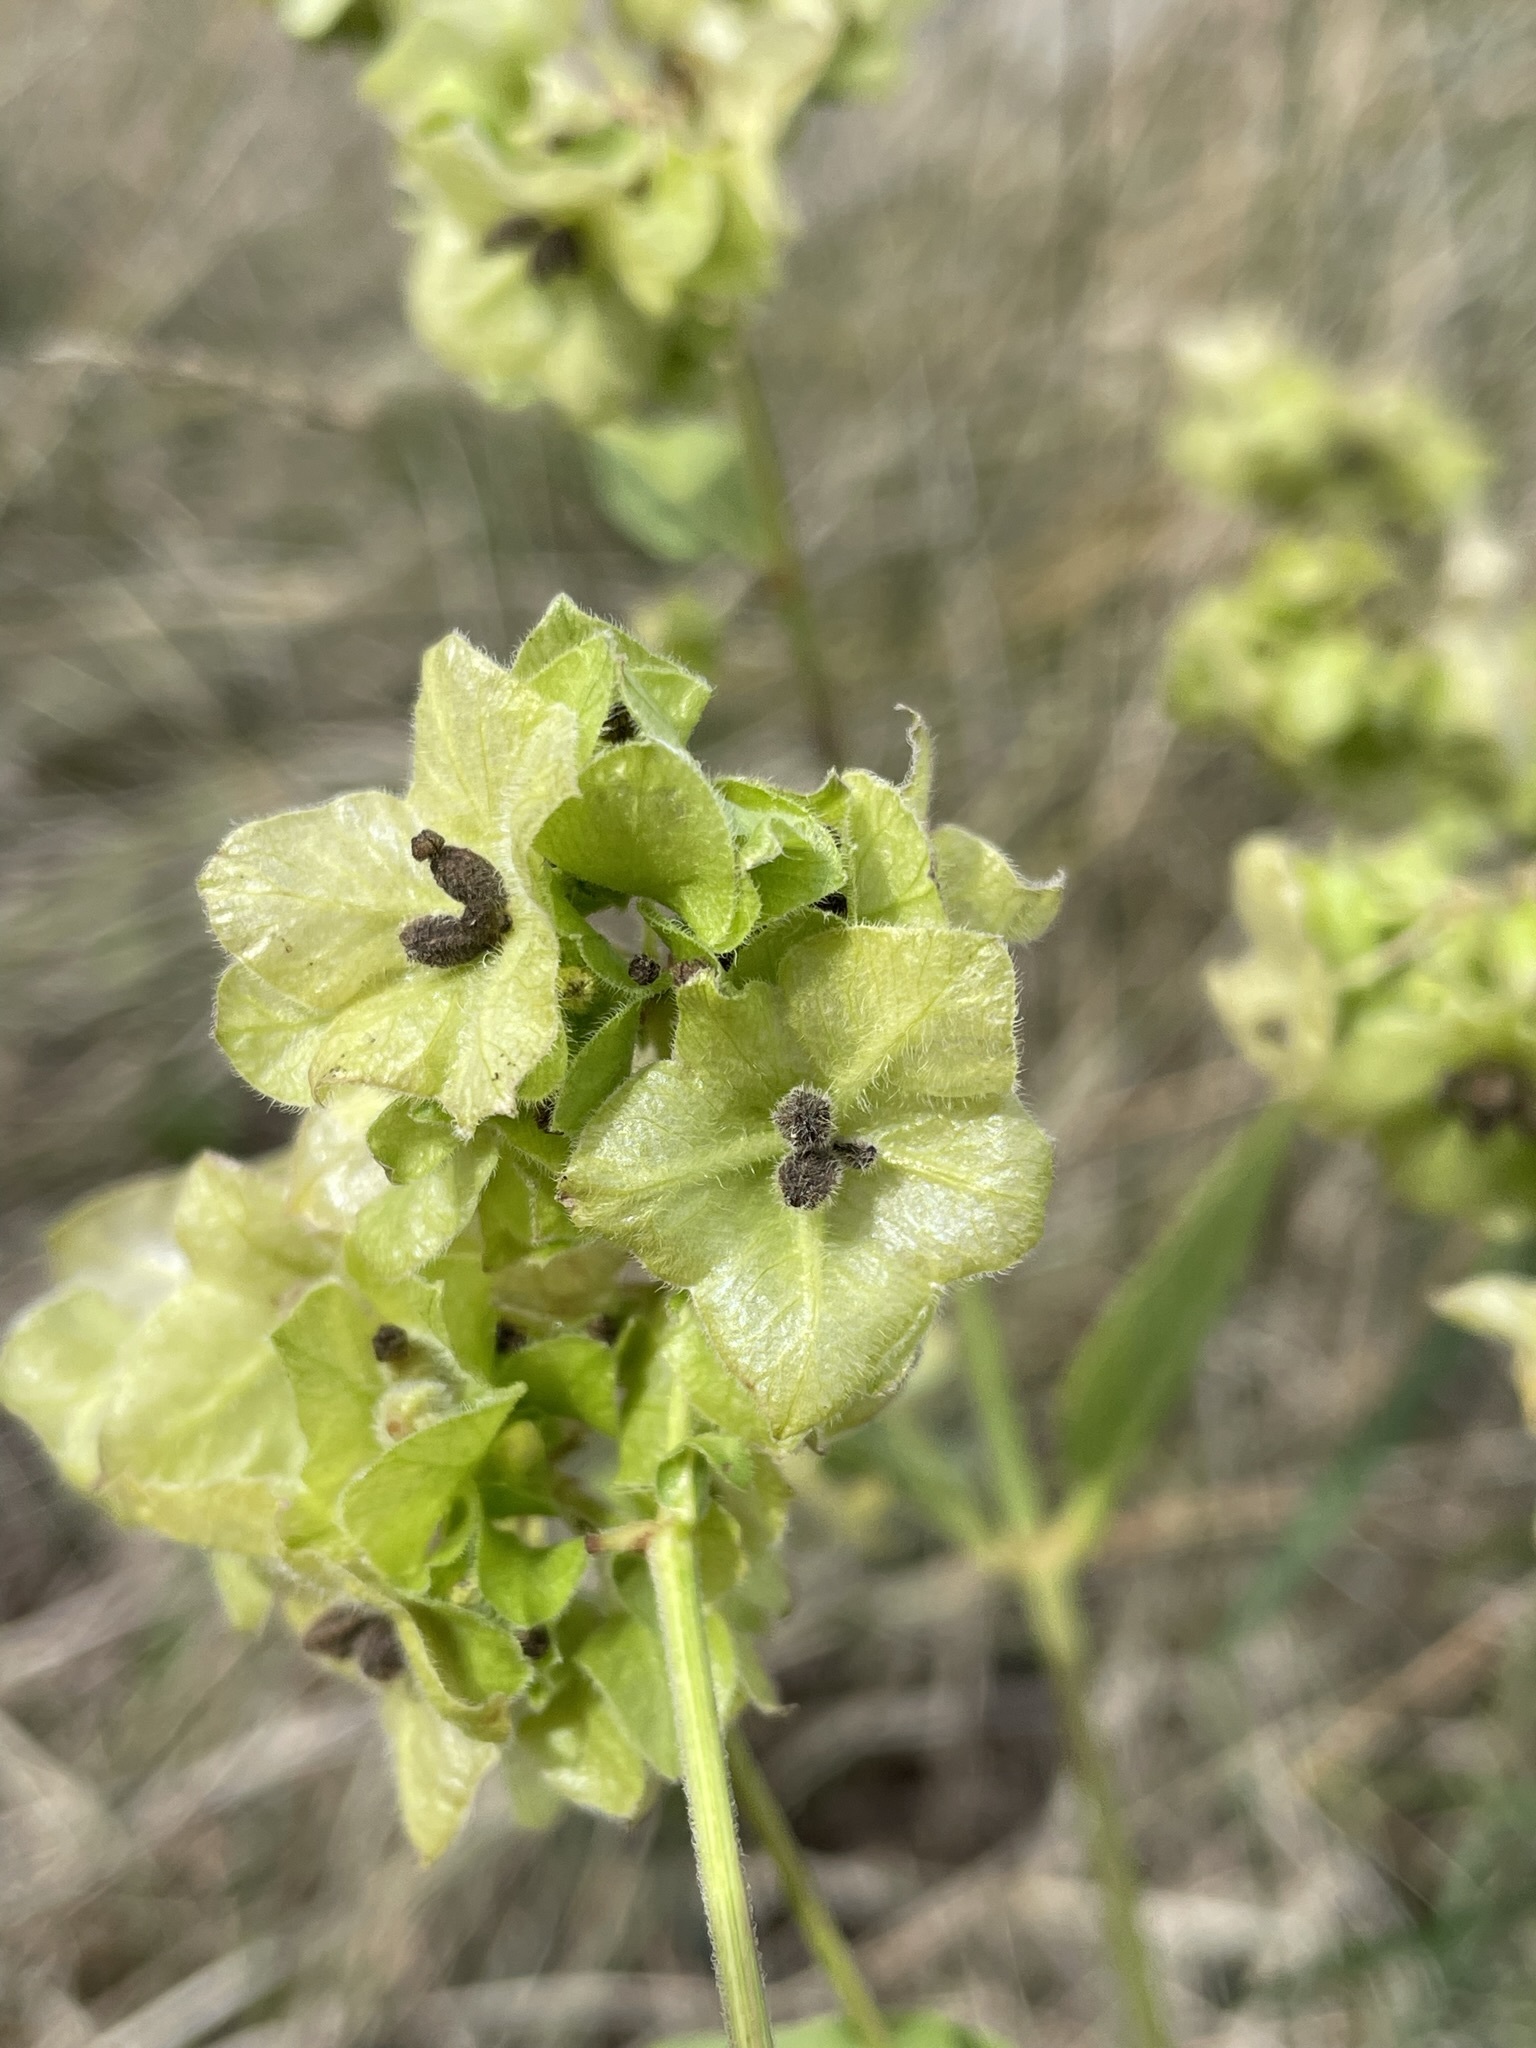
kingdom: Plantae
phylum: Tracheophyta
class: Magnoliopsida
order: Caryophyllales
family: Nyctaginaceae
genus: Mirabilis
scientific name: Mirabilis nyctaginea
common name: Umbrella wort
